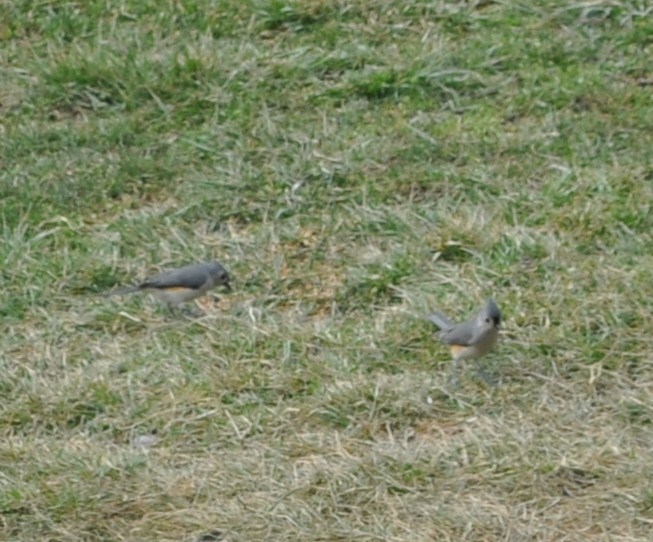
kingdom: Animalia
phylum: Chordata
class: Aves
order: Passeriformes
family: Paridae
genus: Baeolophus
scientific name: Baeolophus bicolor
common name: Tufted titmouse
